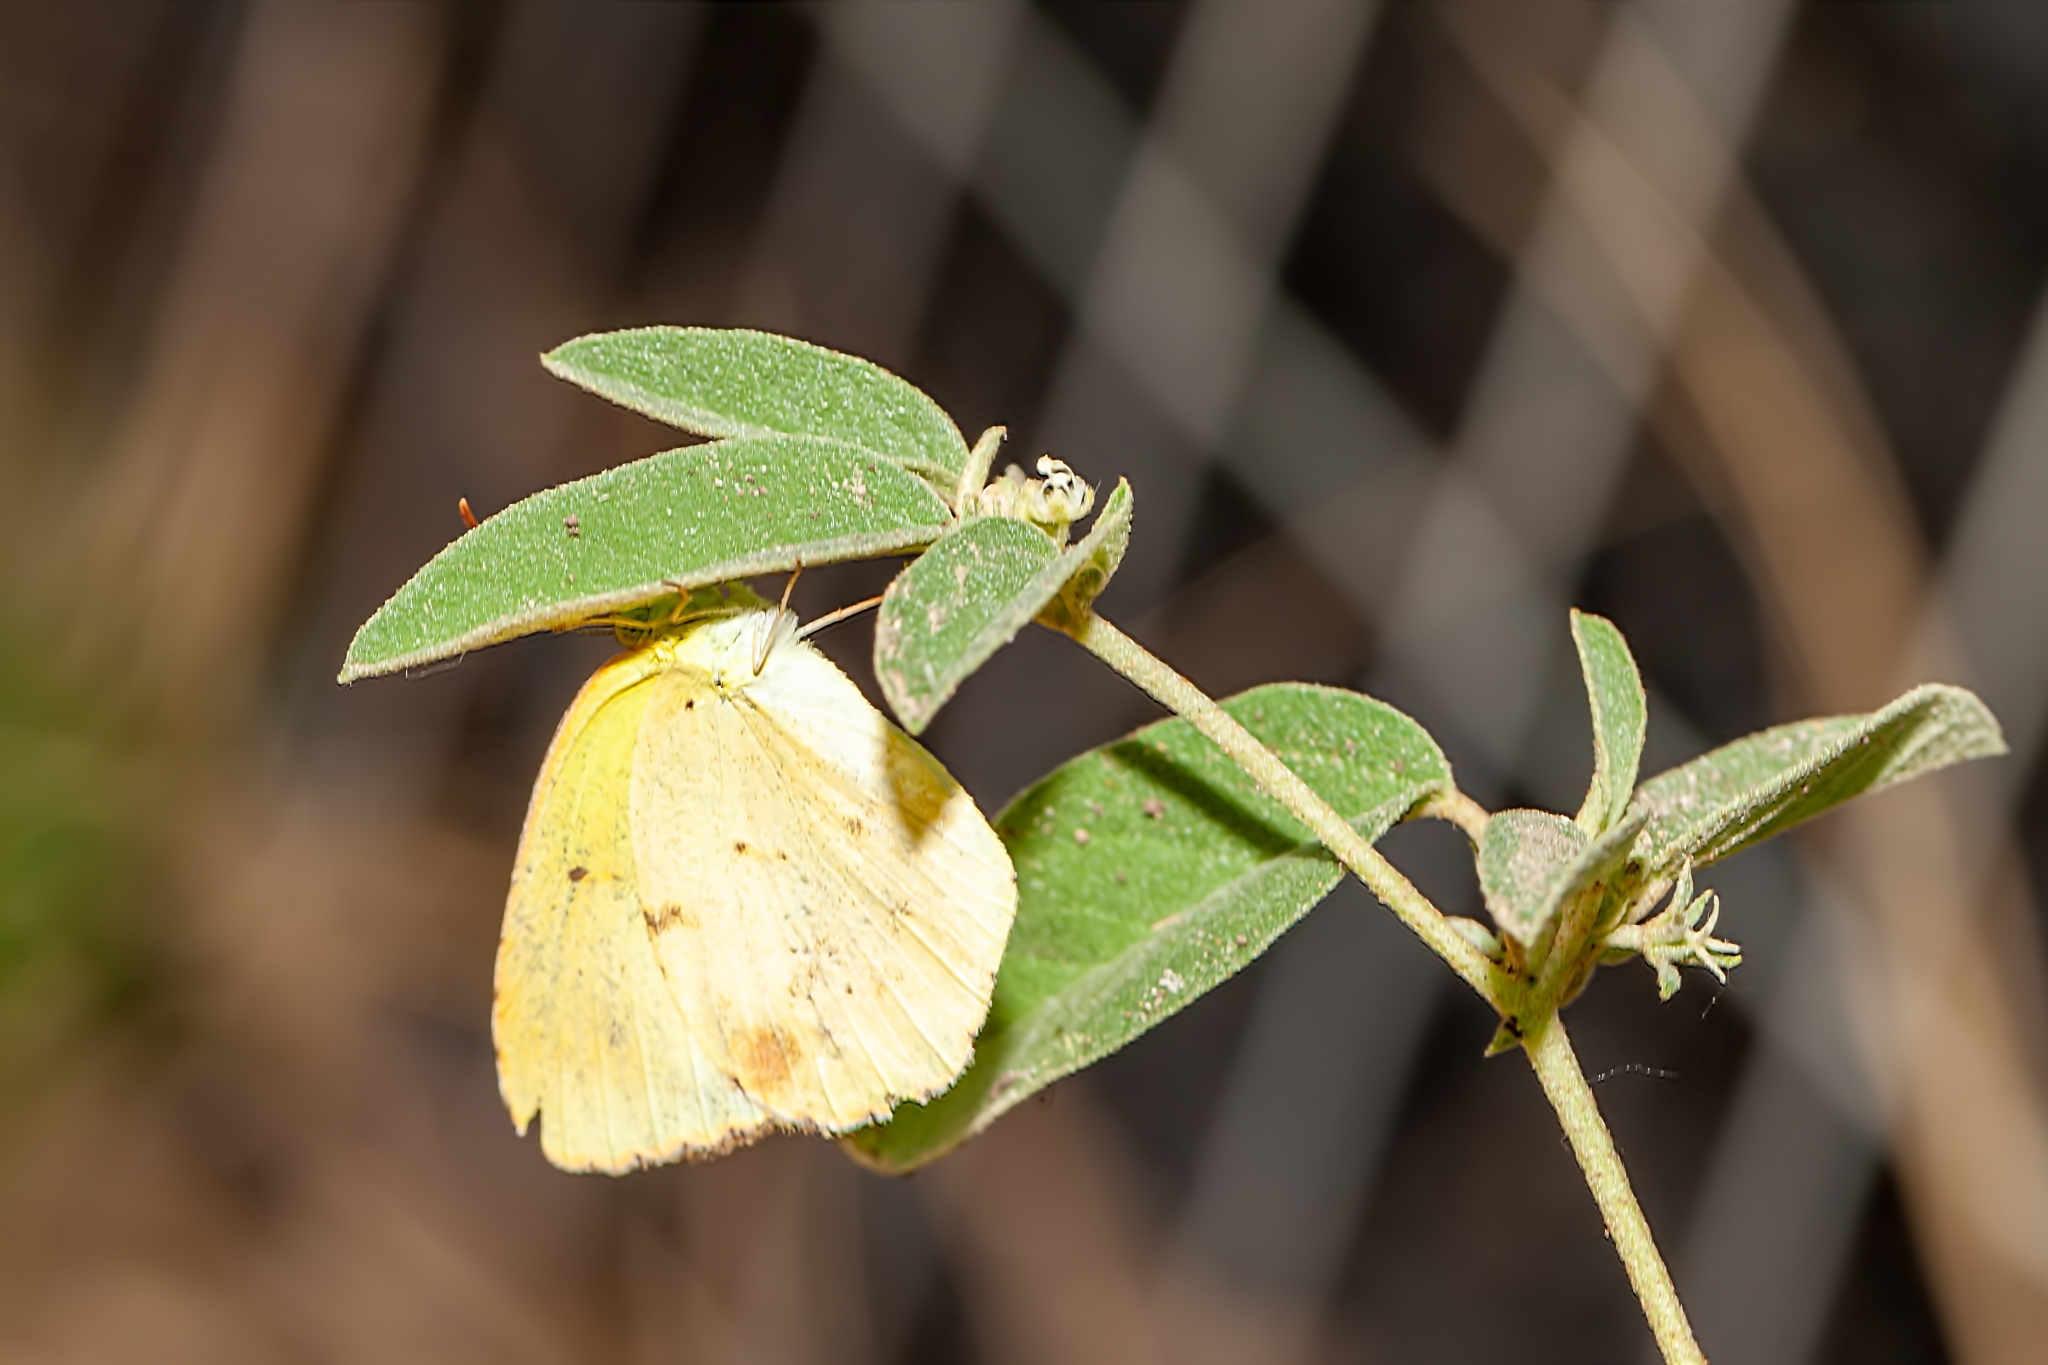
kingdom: Animalia
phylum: Arthropoda
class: Insecta
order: Lepidoptera
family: Pieridae
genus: Pyrisitia
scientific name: Pyrisitia lisa
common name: Little yellow
